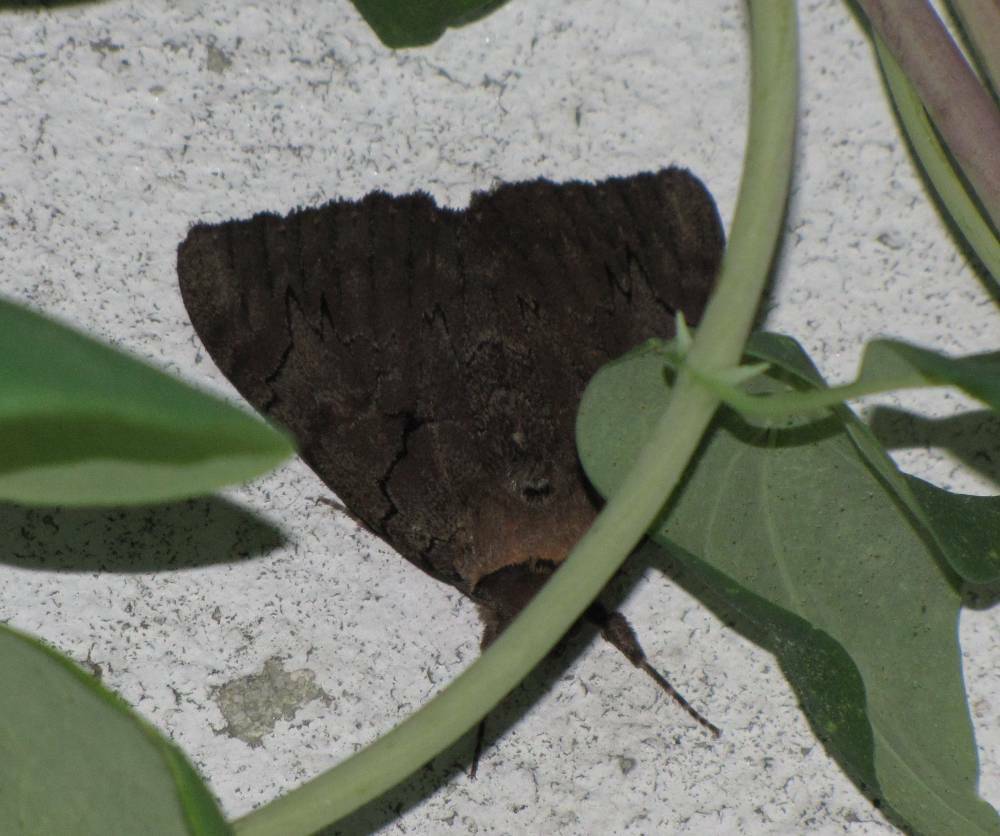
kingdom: Animalia
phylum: Arthropoda
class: Insecta
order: Lepidoptera
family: Erebidae
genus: Catocala
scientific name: Catocala cara
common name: Darling underwing
